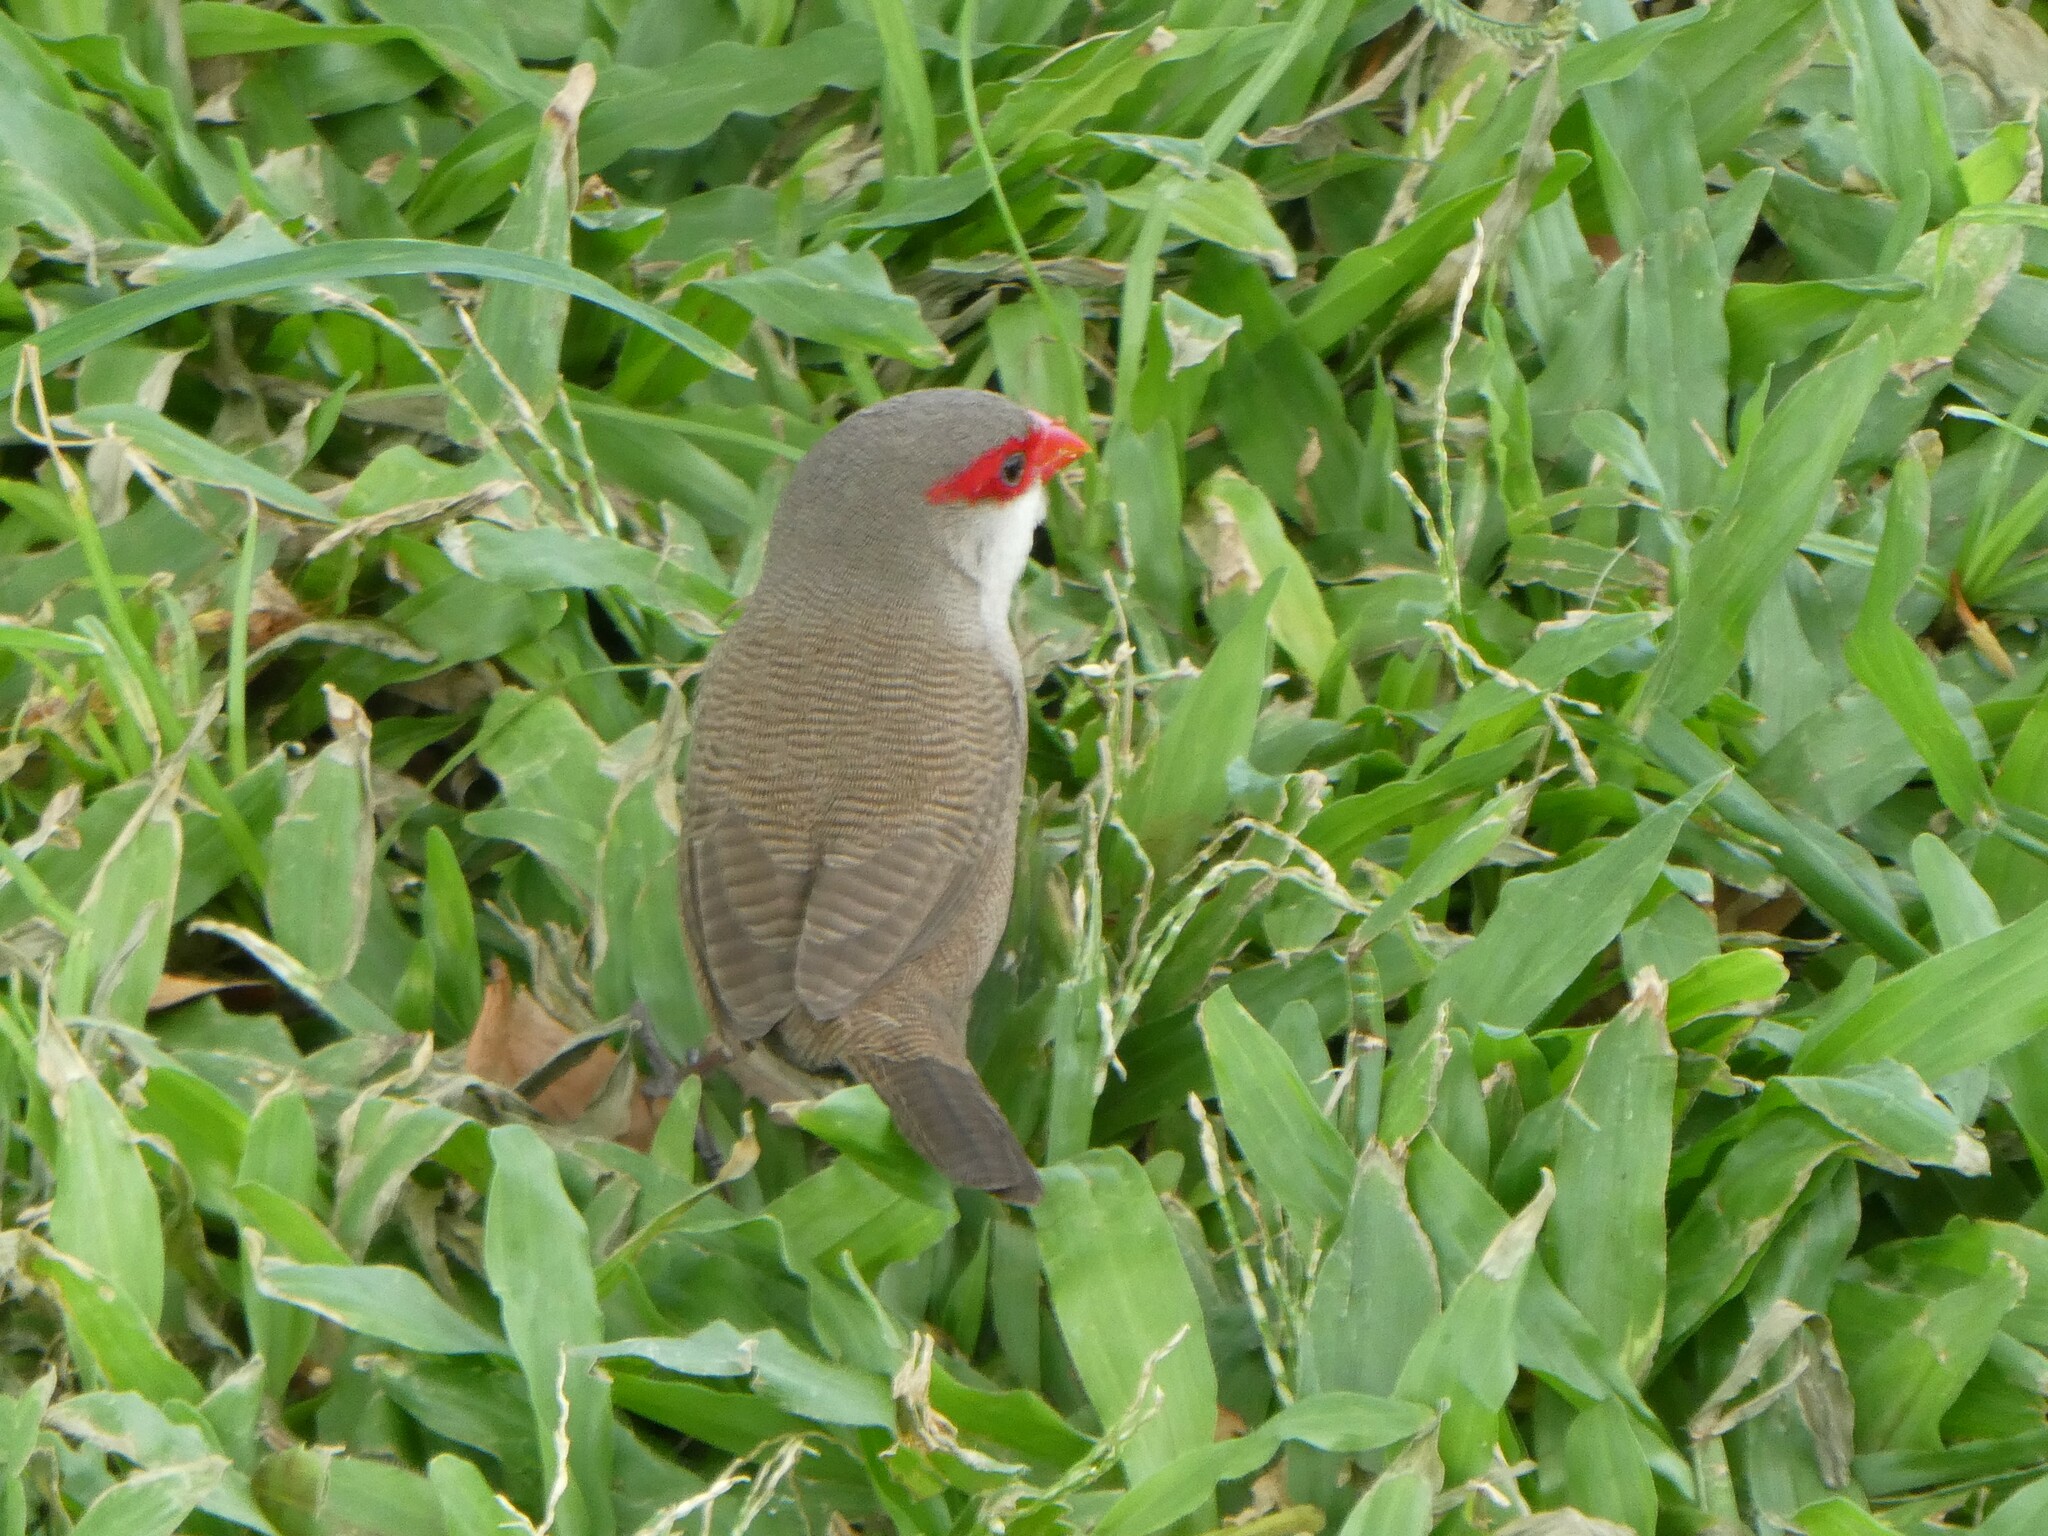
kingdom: Animalia
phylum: Chordata
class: Aves
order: Passeriformes
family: Estrildidae
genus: Estrilda
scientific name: Estrilda astrild
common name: Common waxbill
